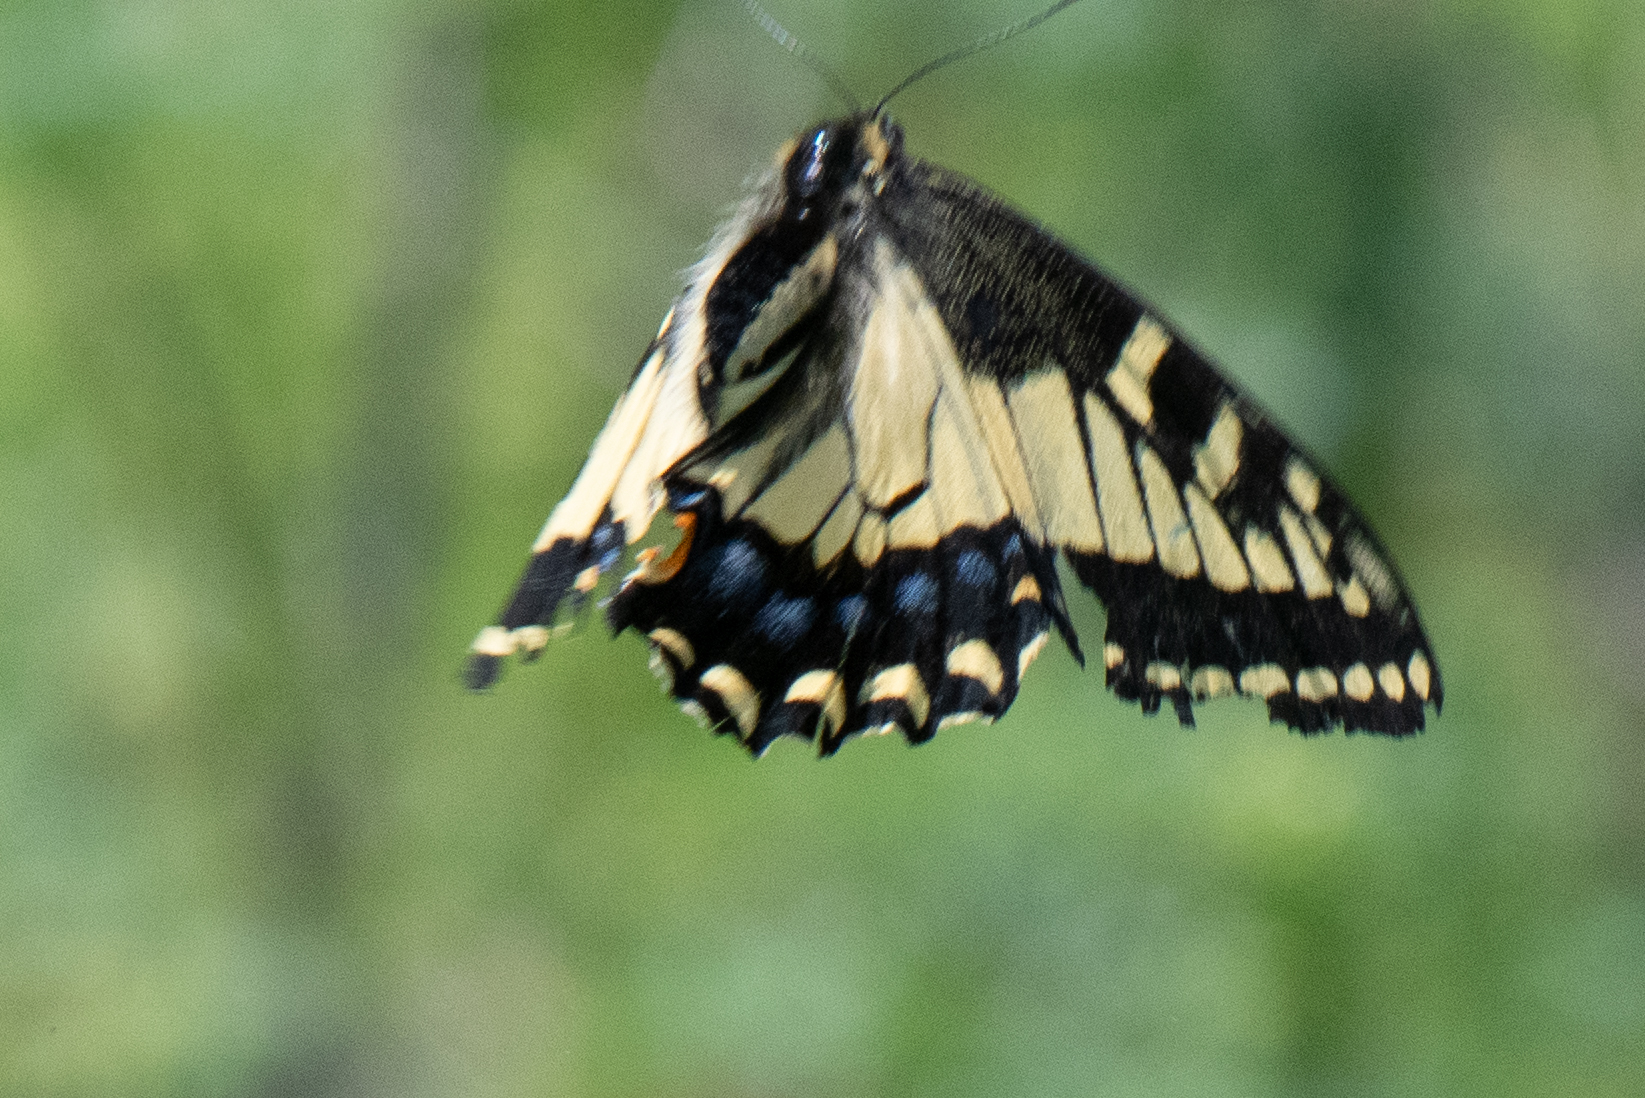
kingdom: Animalia
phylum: Arthropoda
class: Insecta
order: Lepidoptera
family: Papilionidae
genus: Papilio
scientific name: Papilio zelicaon
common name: Anise swallowtail
